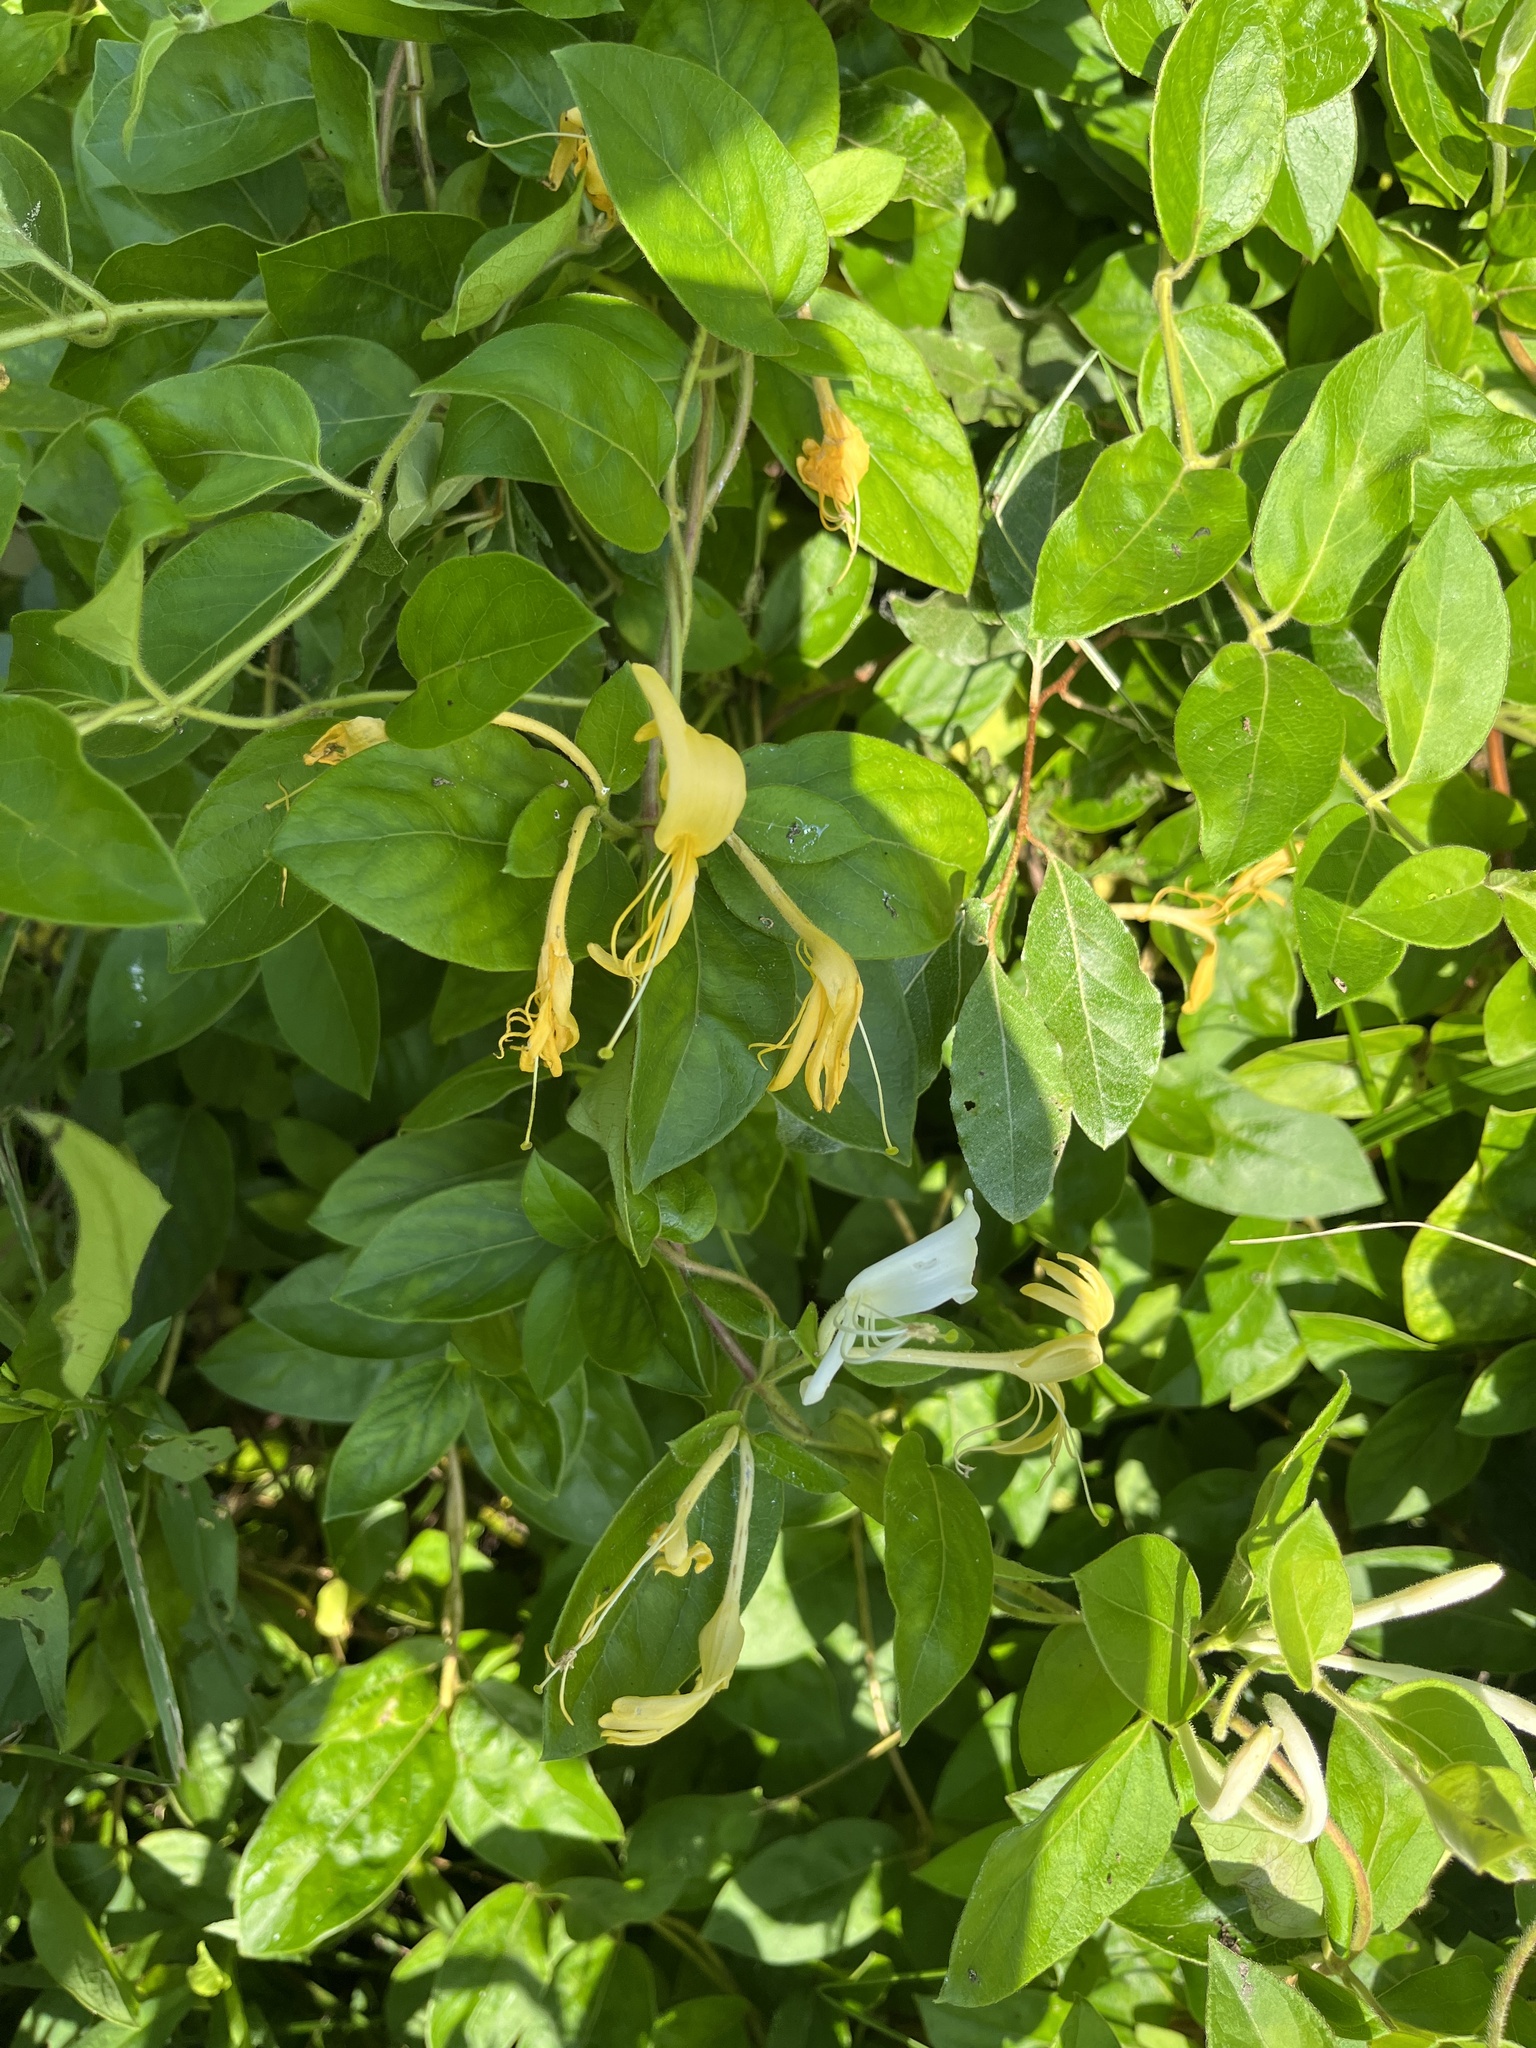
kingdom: Plantae
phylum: Tracheophyta
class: Magnoliopsida
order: Dipsacales
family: Caprifoliaceae
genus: Lonicera
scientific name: Lonicera japonica
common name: Japanese honeysuckle
